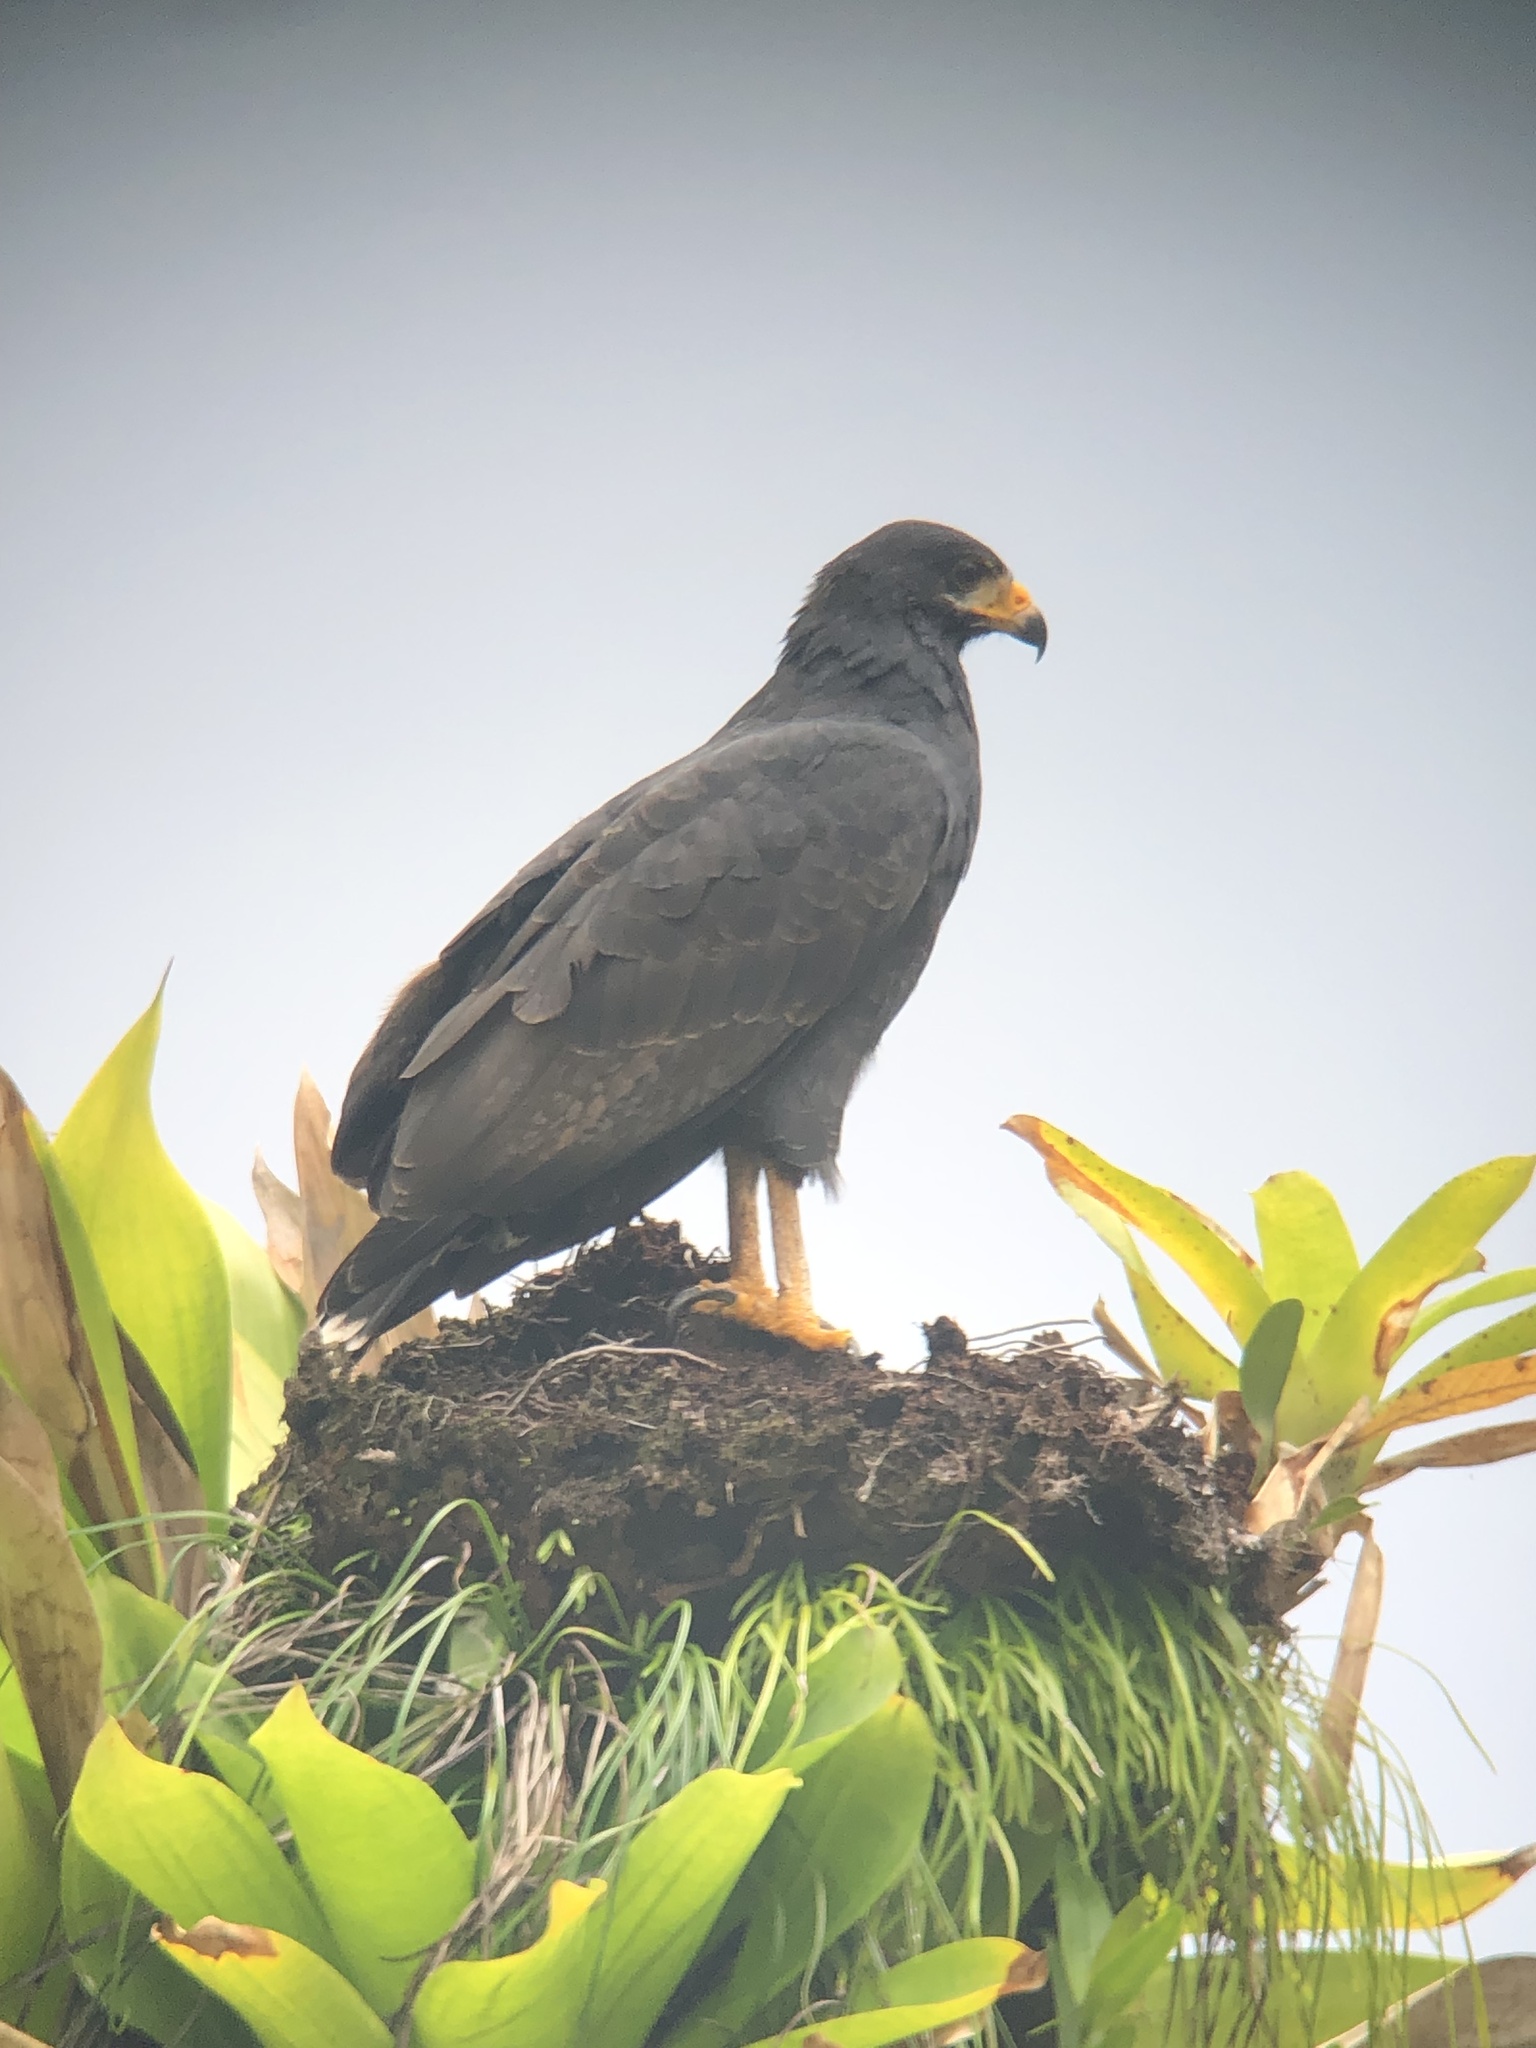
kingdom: Animalia
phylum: Chordata
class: Aves
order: Accipitriformes
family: Accipitridae
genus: Buteogallus
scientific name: Buteogallus anthracinus
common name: Common black hawk
